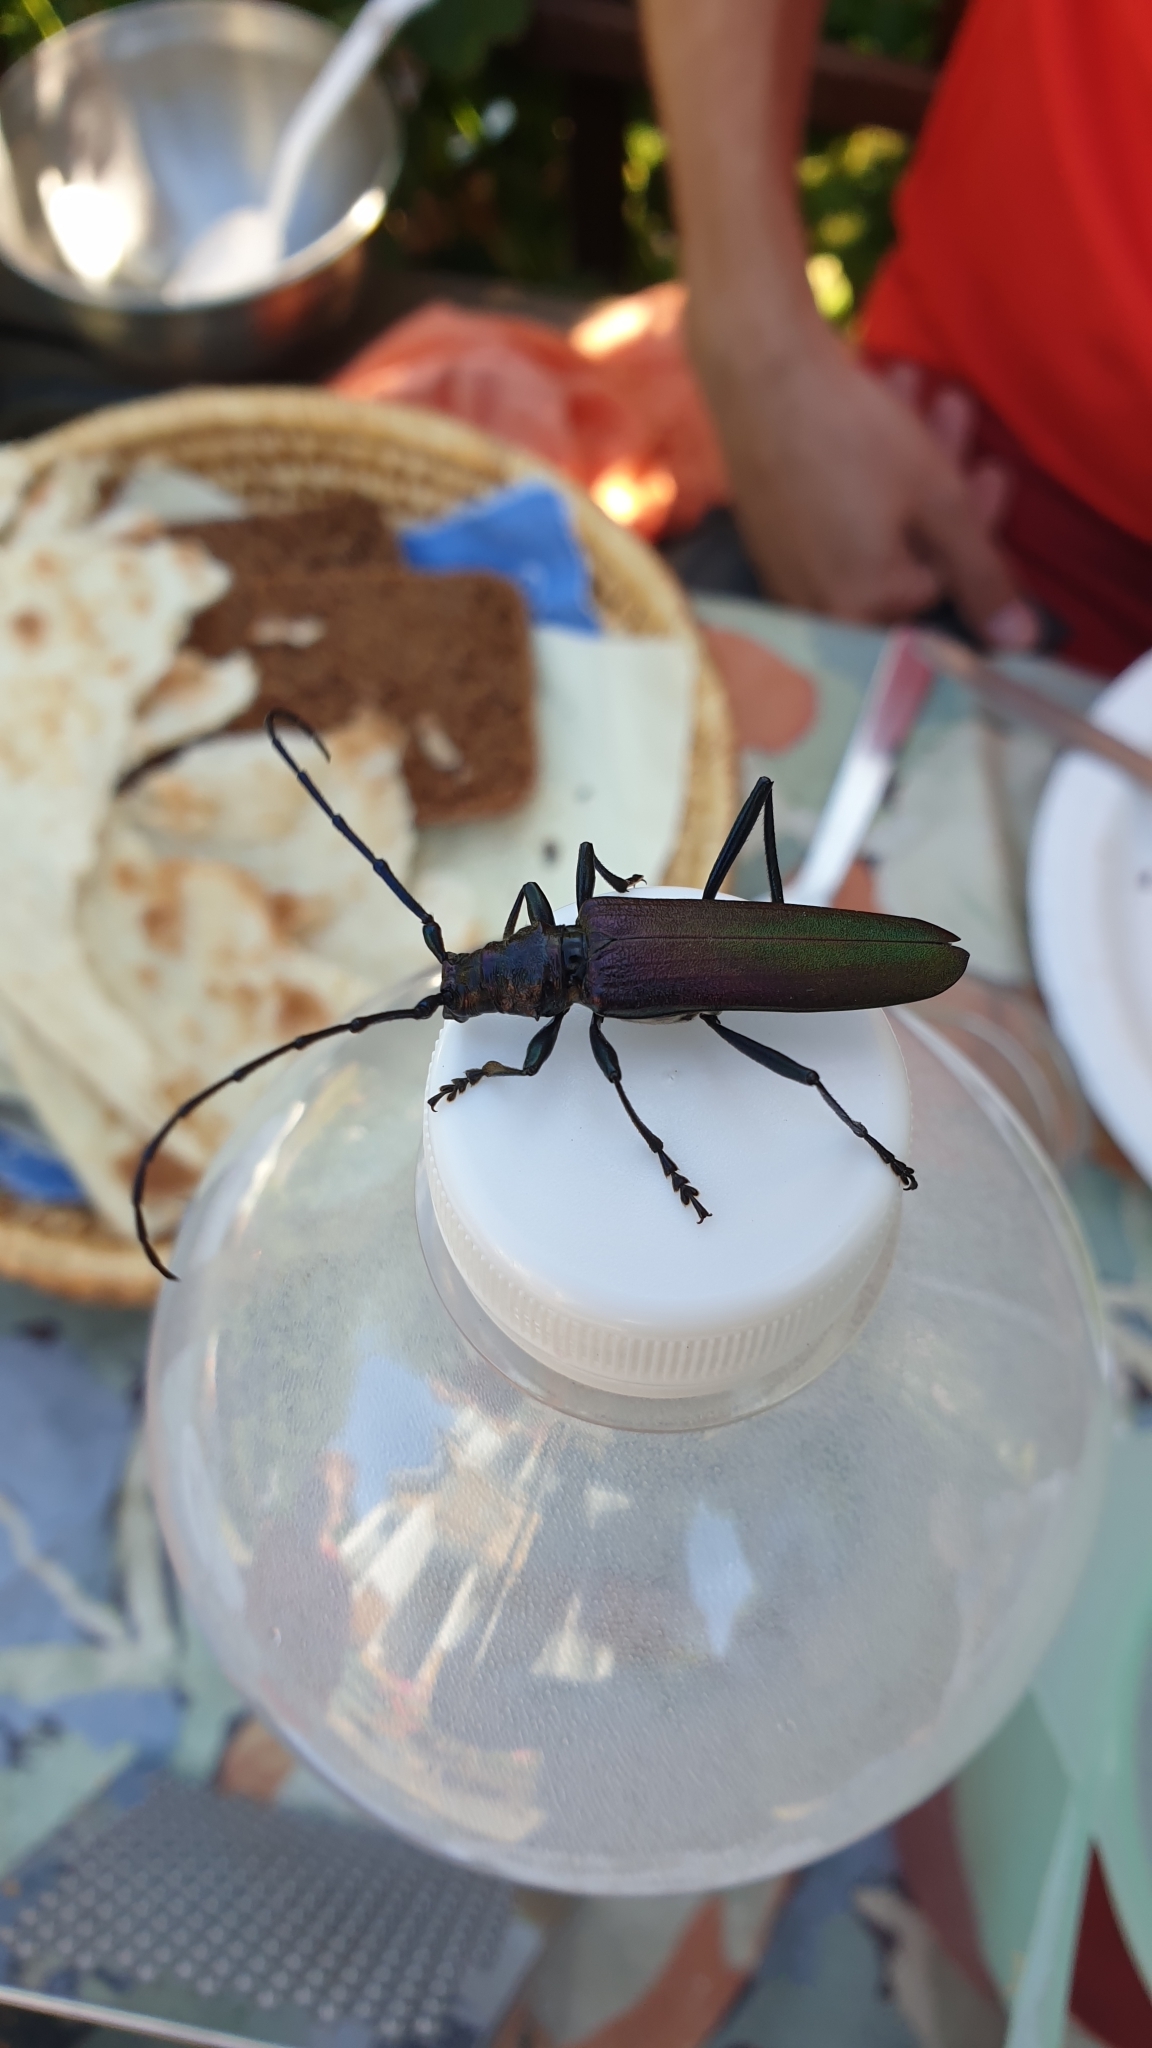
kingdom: Animalia
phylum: Arthropoda
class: Insecta
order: Coleoptera
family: Cerambycidae
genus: Aromia
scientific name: Aromia moschata
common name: Musk beetle
